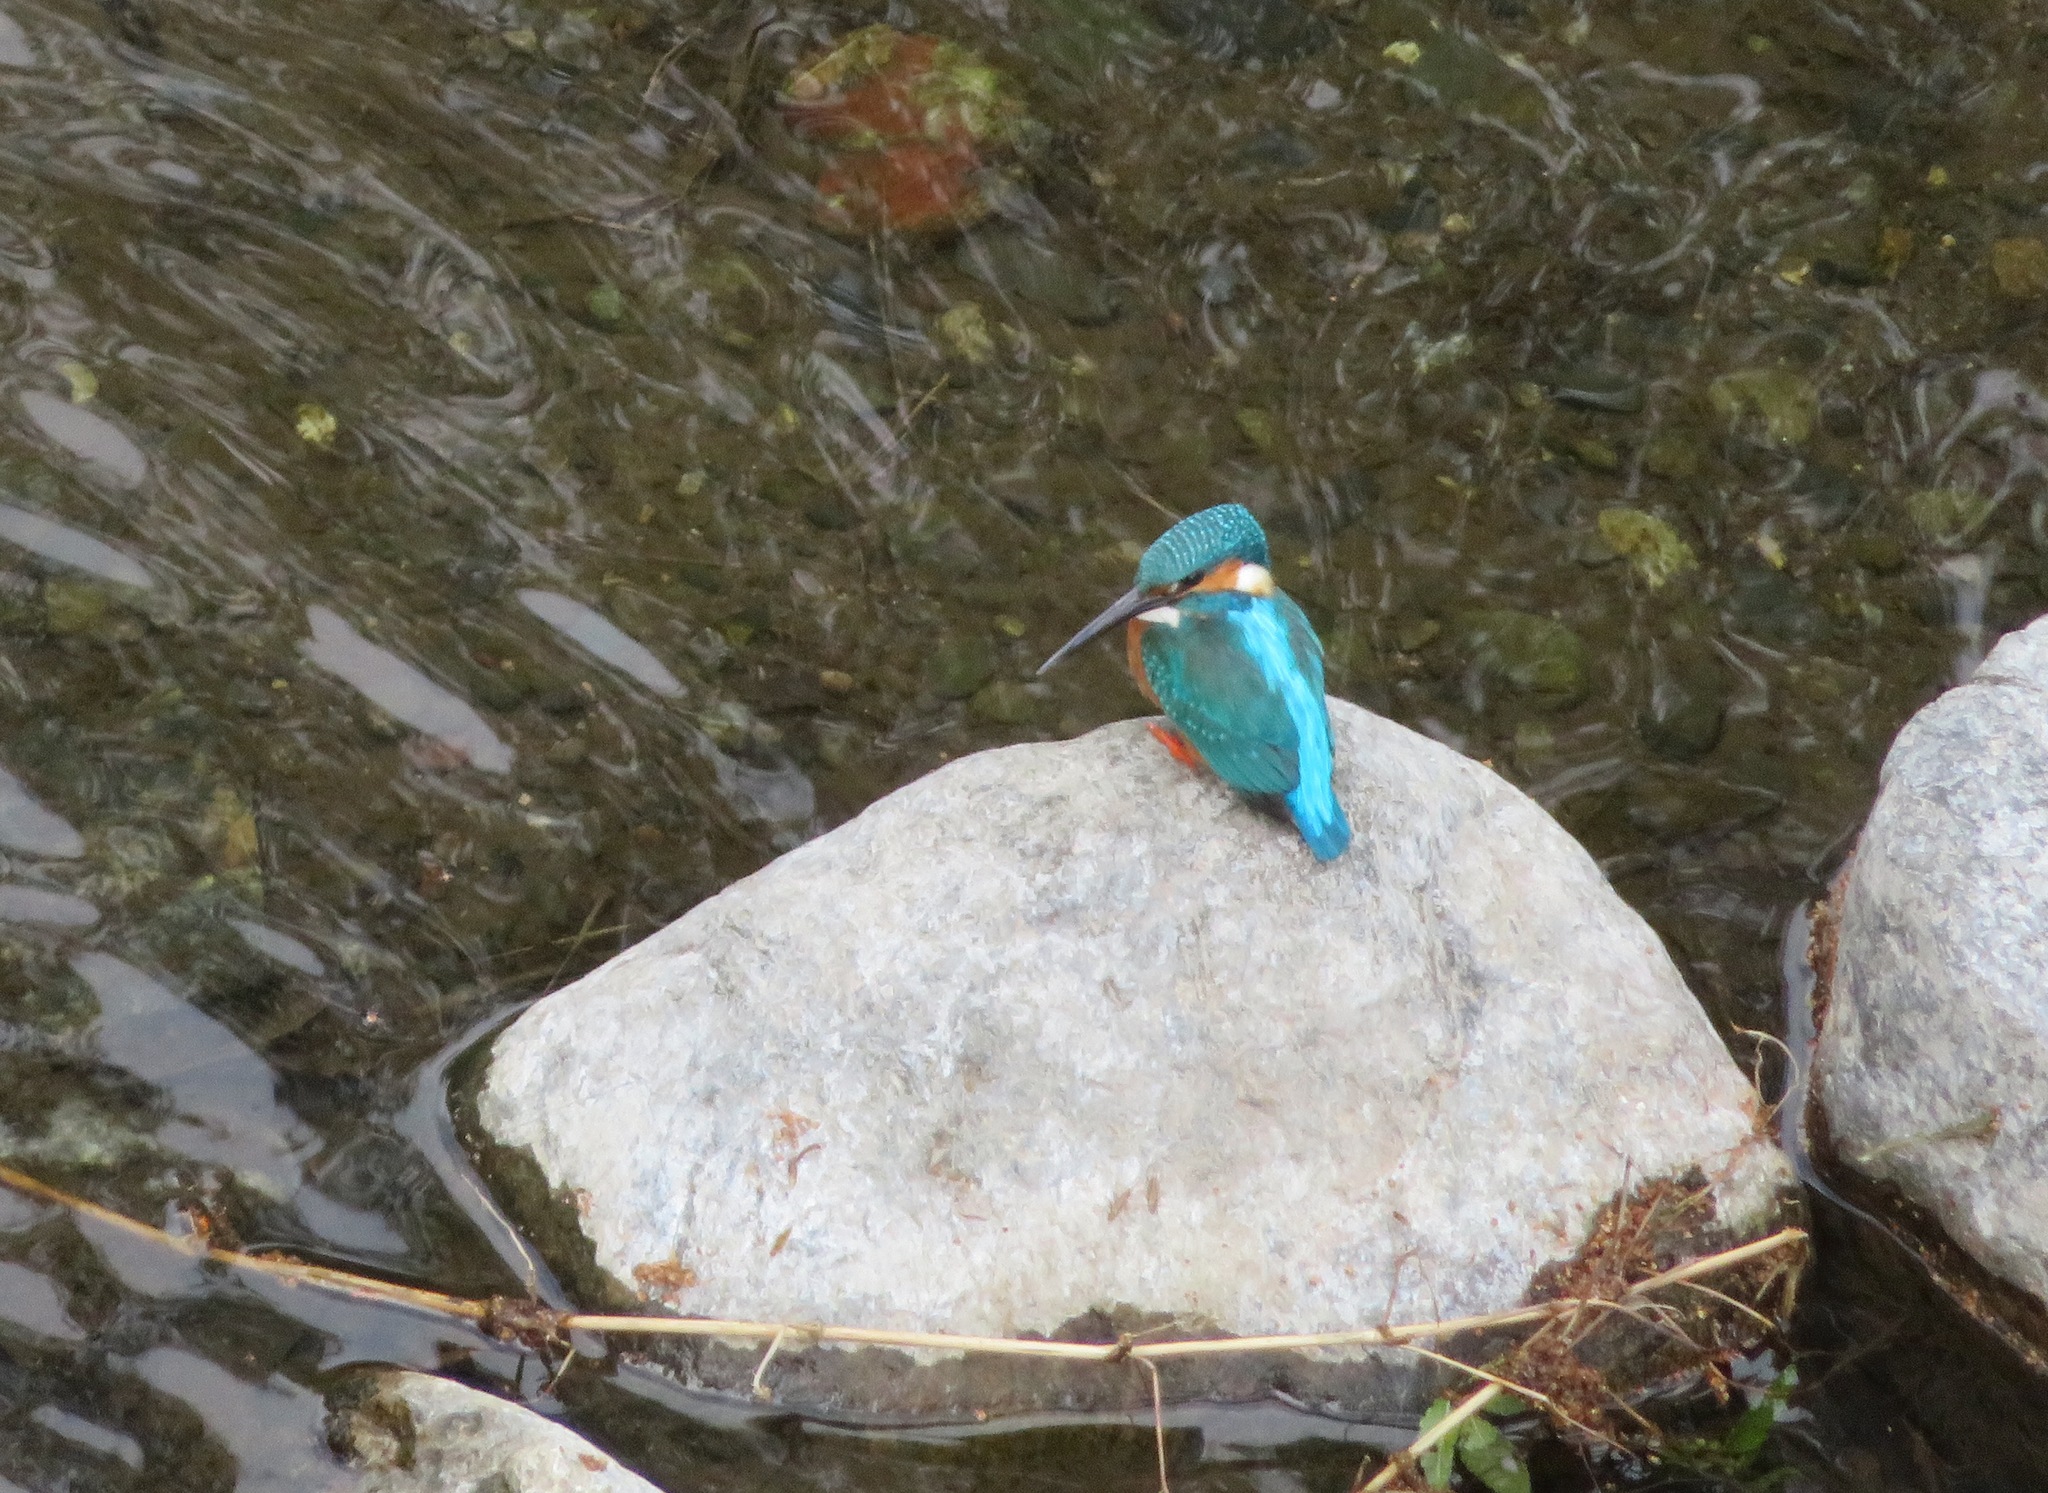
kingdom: Animalia
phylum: Chordata
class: Aves
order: Coraciiformes
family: Alcedinidae
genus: Alcedo
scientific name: Alcedo atthis
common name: Common kingfisher
